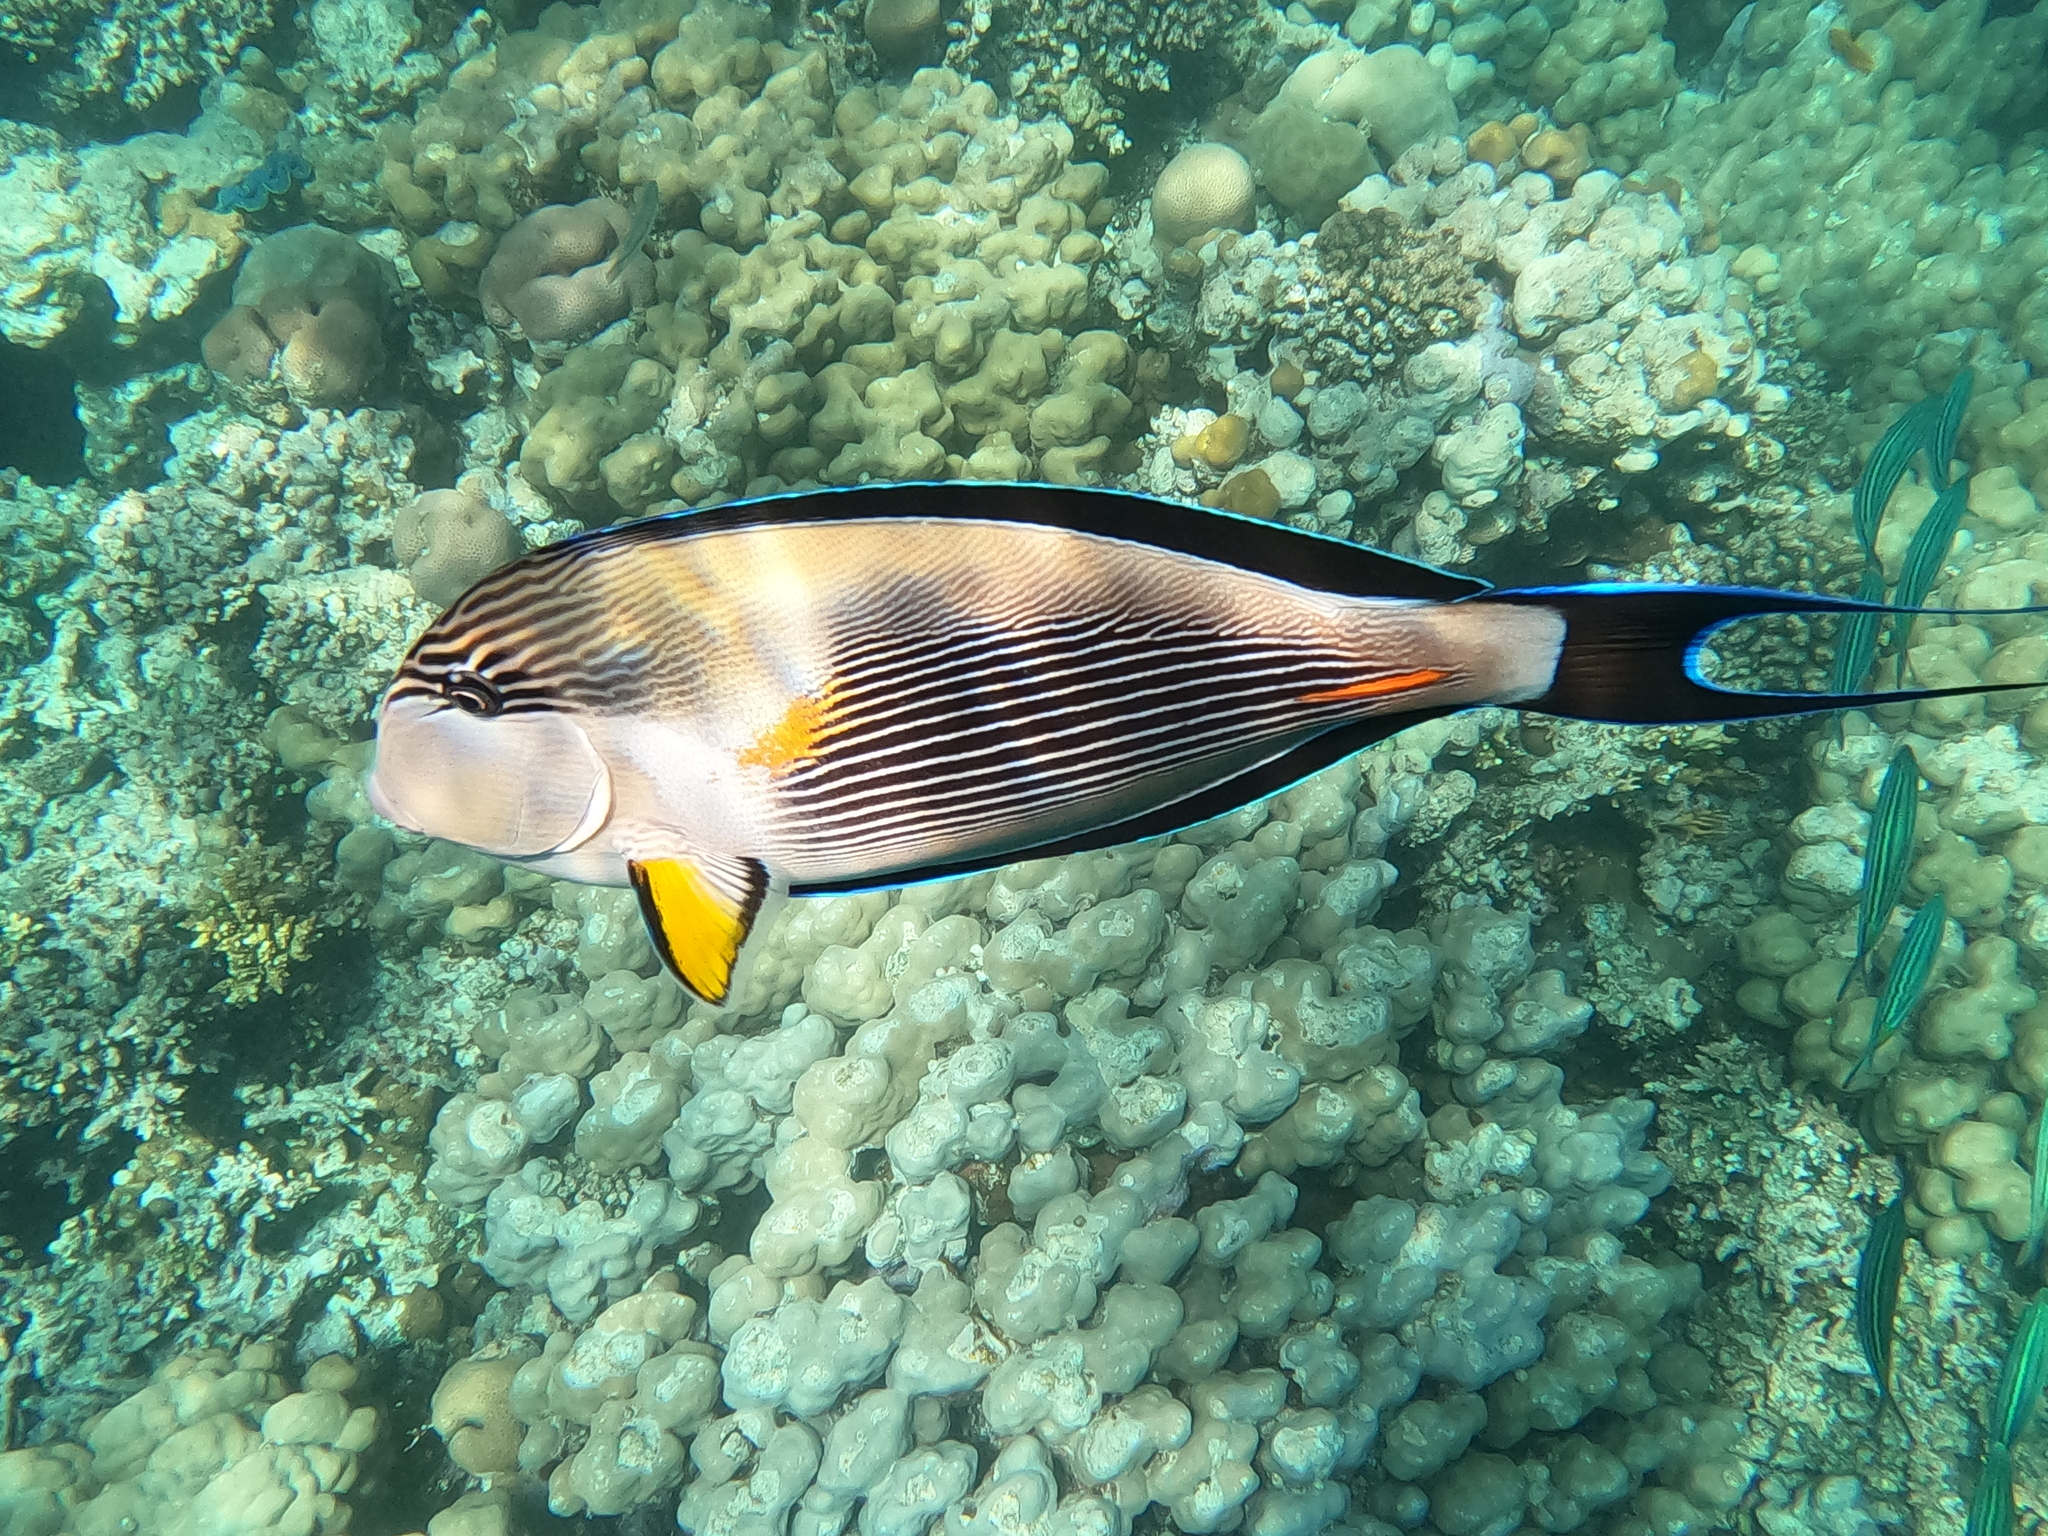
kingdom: Animalia
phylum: Chordata
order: Perciformes
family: Acanthuridae
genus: Acanthurus
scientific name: Acanthurus sohal
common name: Red sea surgeonfish
